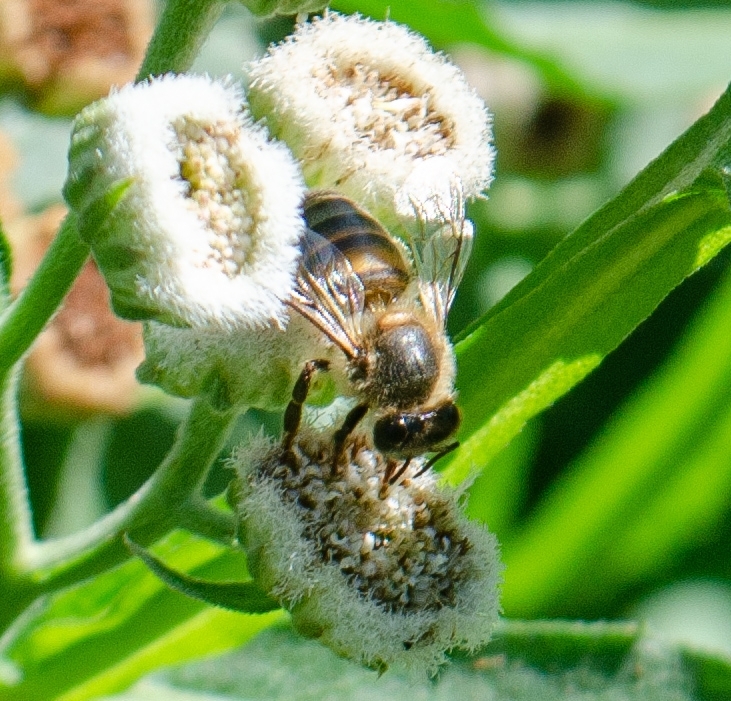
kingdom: Animalia
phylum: Arthropoda
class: Insecta
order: Hymenoptera
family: Apidae
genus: Apis
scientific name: Apis mellifera
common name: Honey bee
